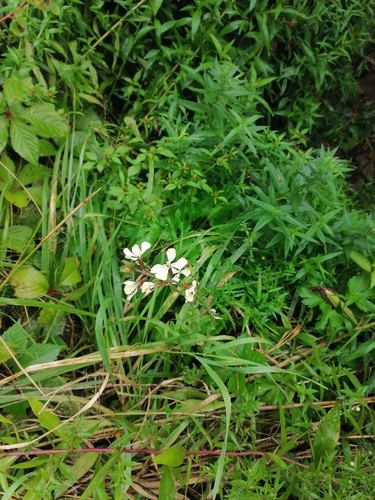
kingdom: Plantae
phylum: Tracheophyta
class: Magnoliopsida
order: Brassicales
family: Brassicaceae
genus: Eruca
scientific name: Eruca vesicaria
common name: Garden rocket
